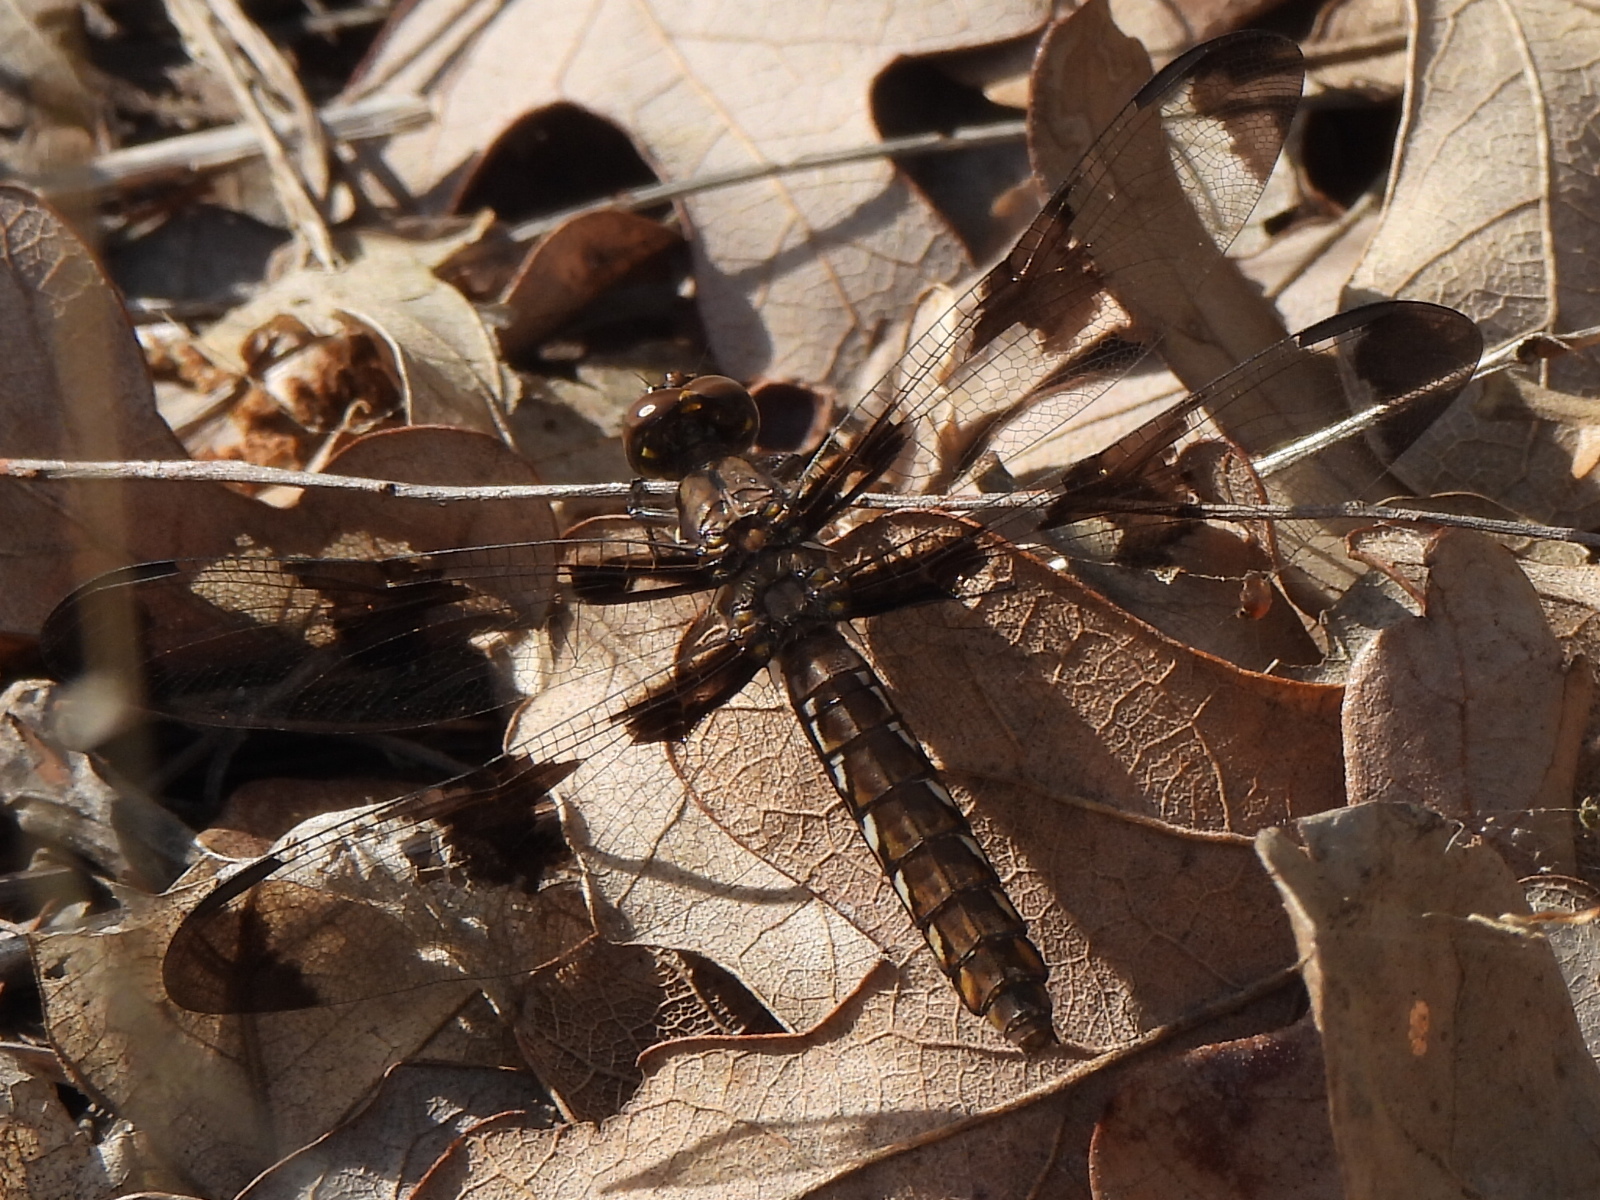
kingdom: Animalia
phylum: Arthropoda
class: Insecta
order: Odonata
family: Libellulidae
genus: Plathemis
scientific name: Plathemis lydia
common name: Common whitetail
